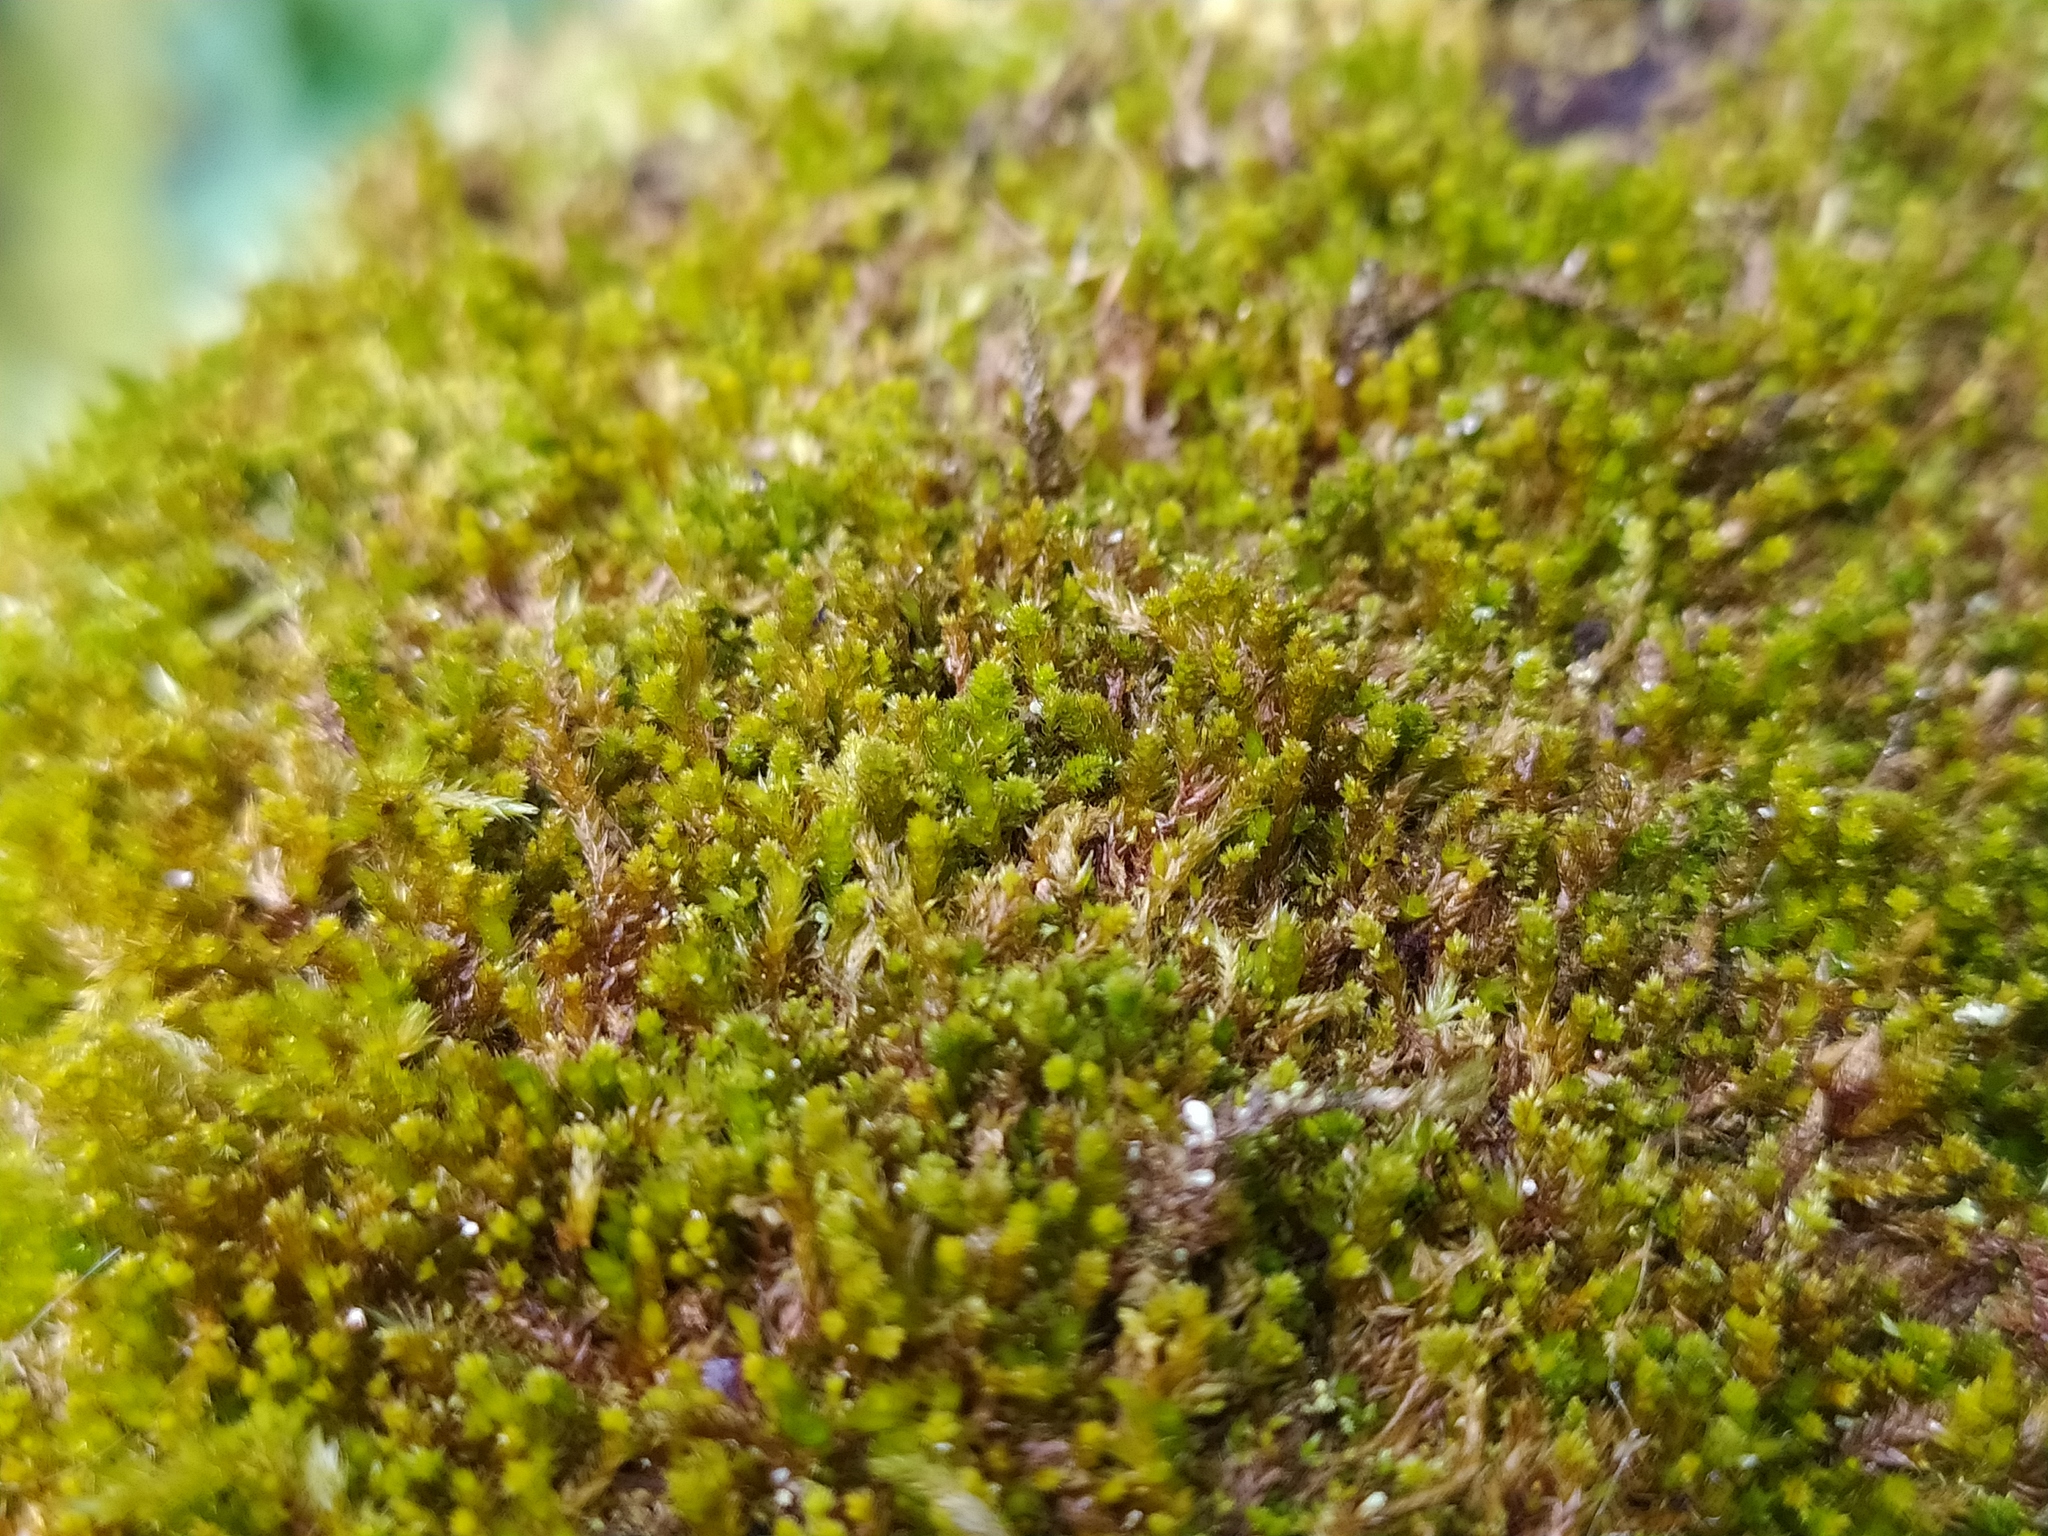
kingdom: Plantae
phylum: Bryophyta
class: Bryopsida
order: Hypnales
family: Pylaisiadelphaceae
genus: Platygyrium
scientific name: Platygyrium repens
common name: Flat-brocade moss
